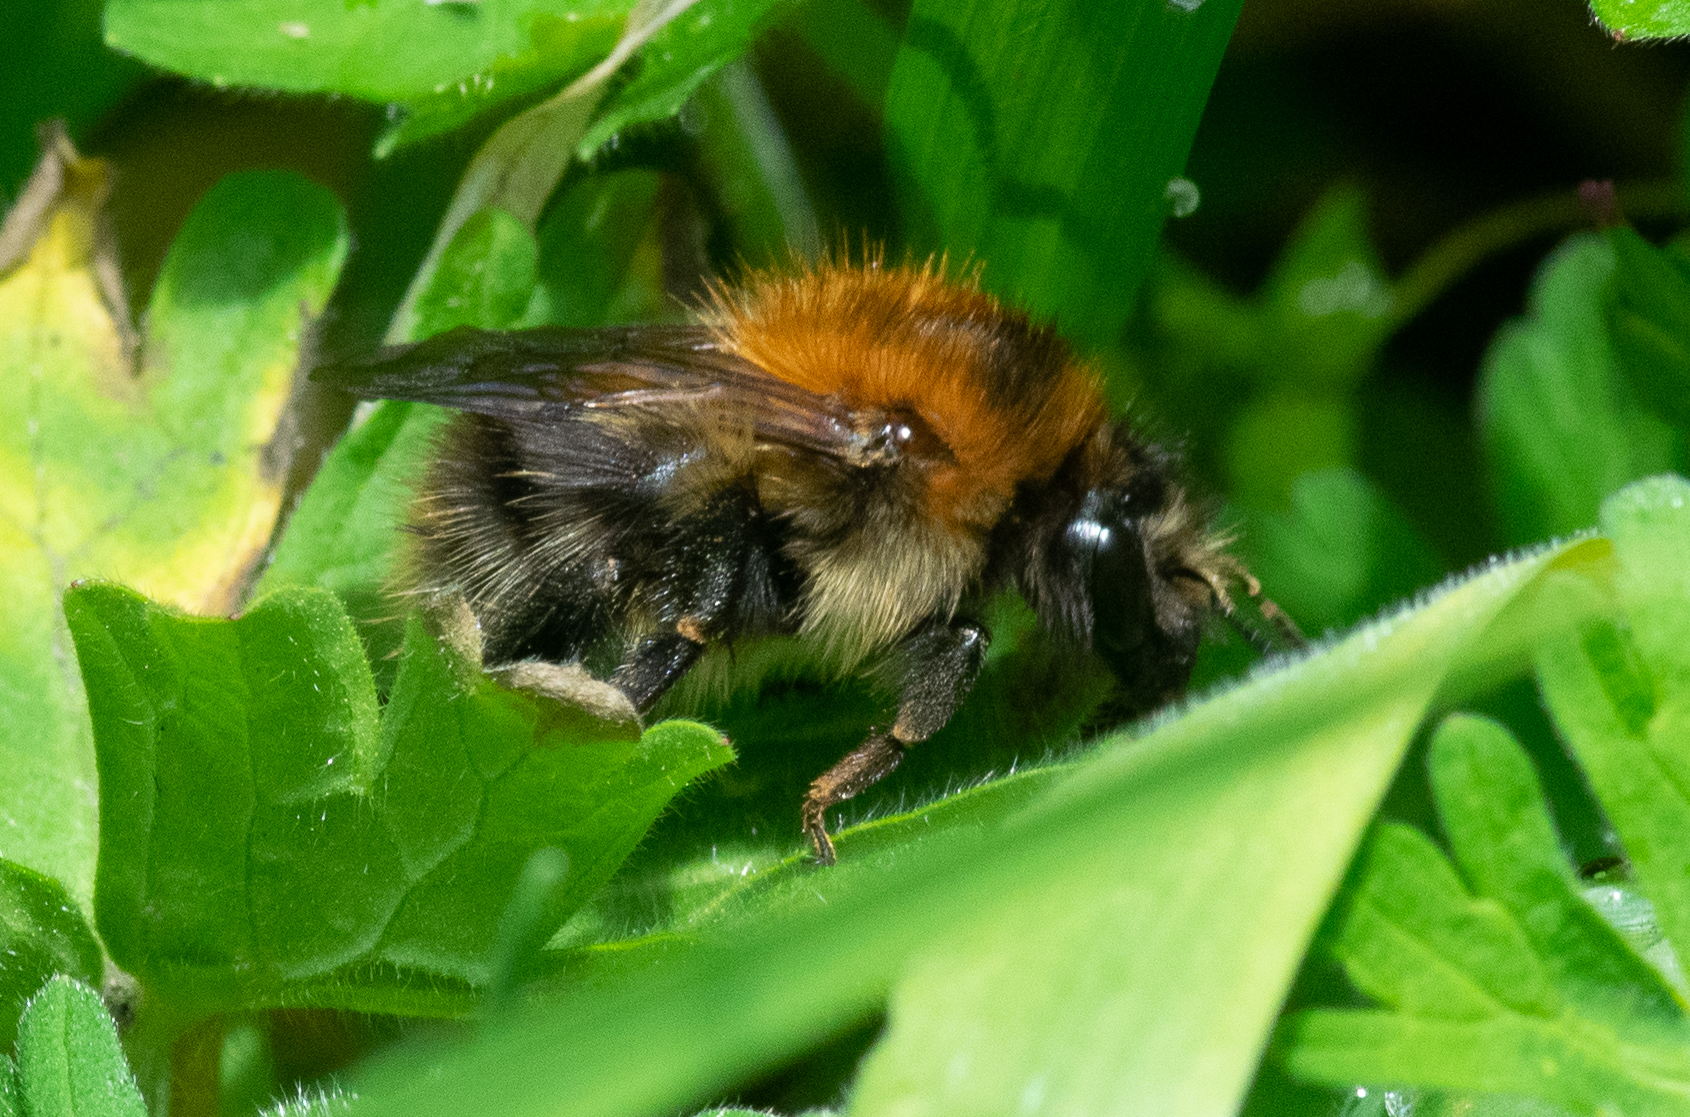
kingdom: Animalia
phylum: Arthropoda
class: Insecta
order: Hymenoptera
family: Apidae
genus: Bombus
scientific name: Bombus pascuorum
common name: Common carder bee
